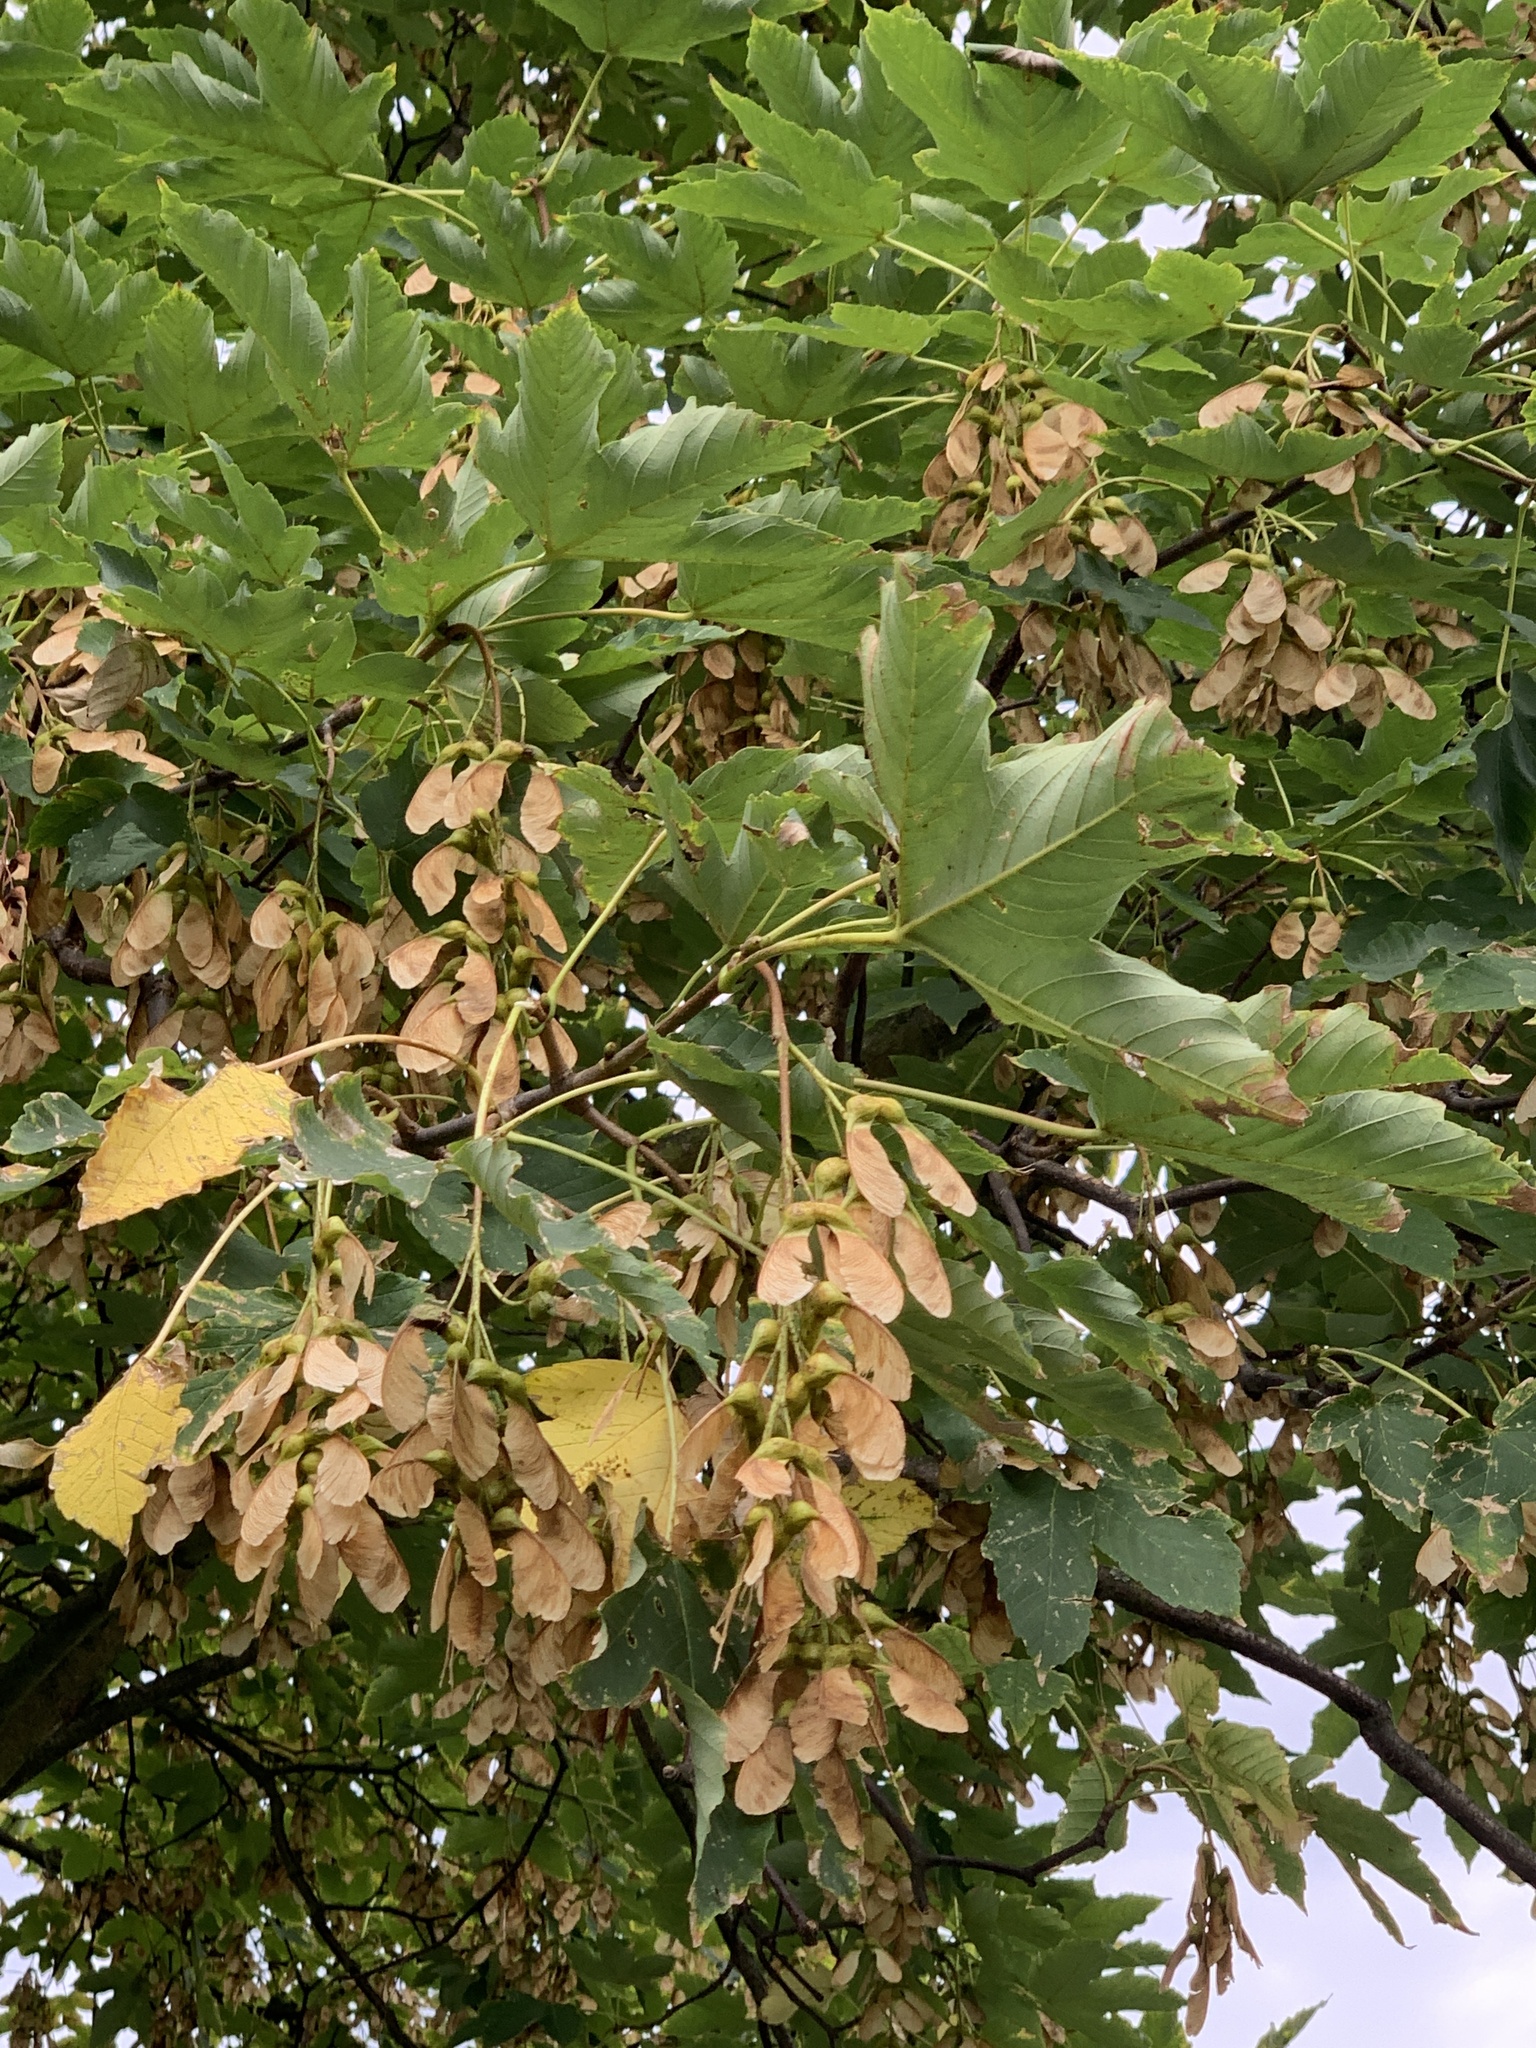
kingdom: Plantae
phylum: Tracheophyta
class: Magnoliopsida
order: Sapindales
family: Sapindaceae
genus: Acer
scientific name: Acer pseudoplatanus
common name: Sycamore
